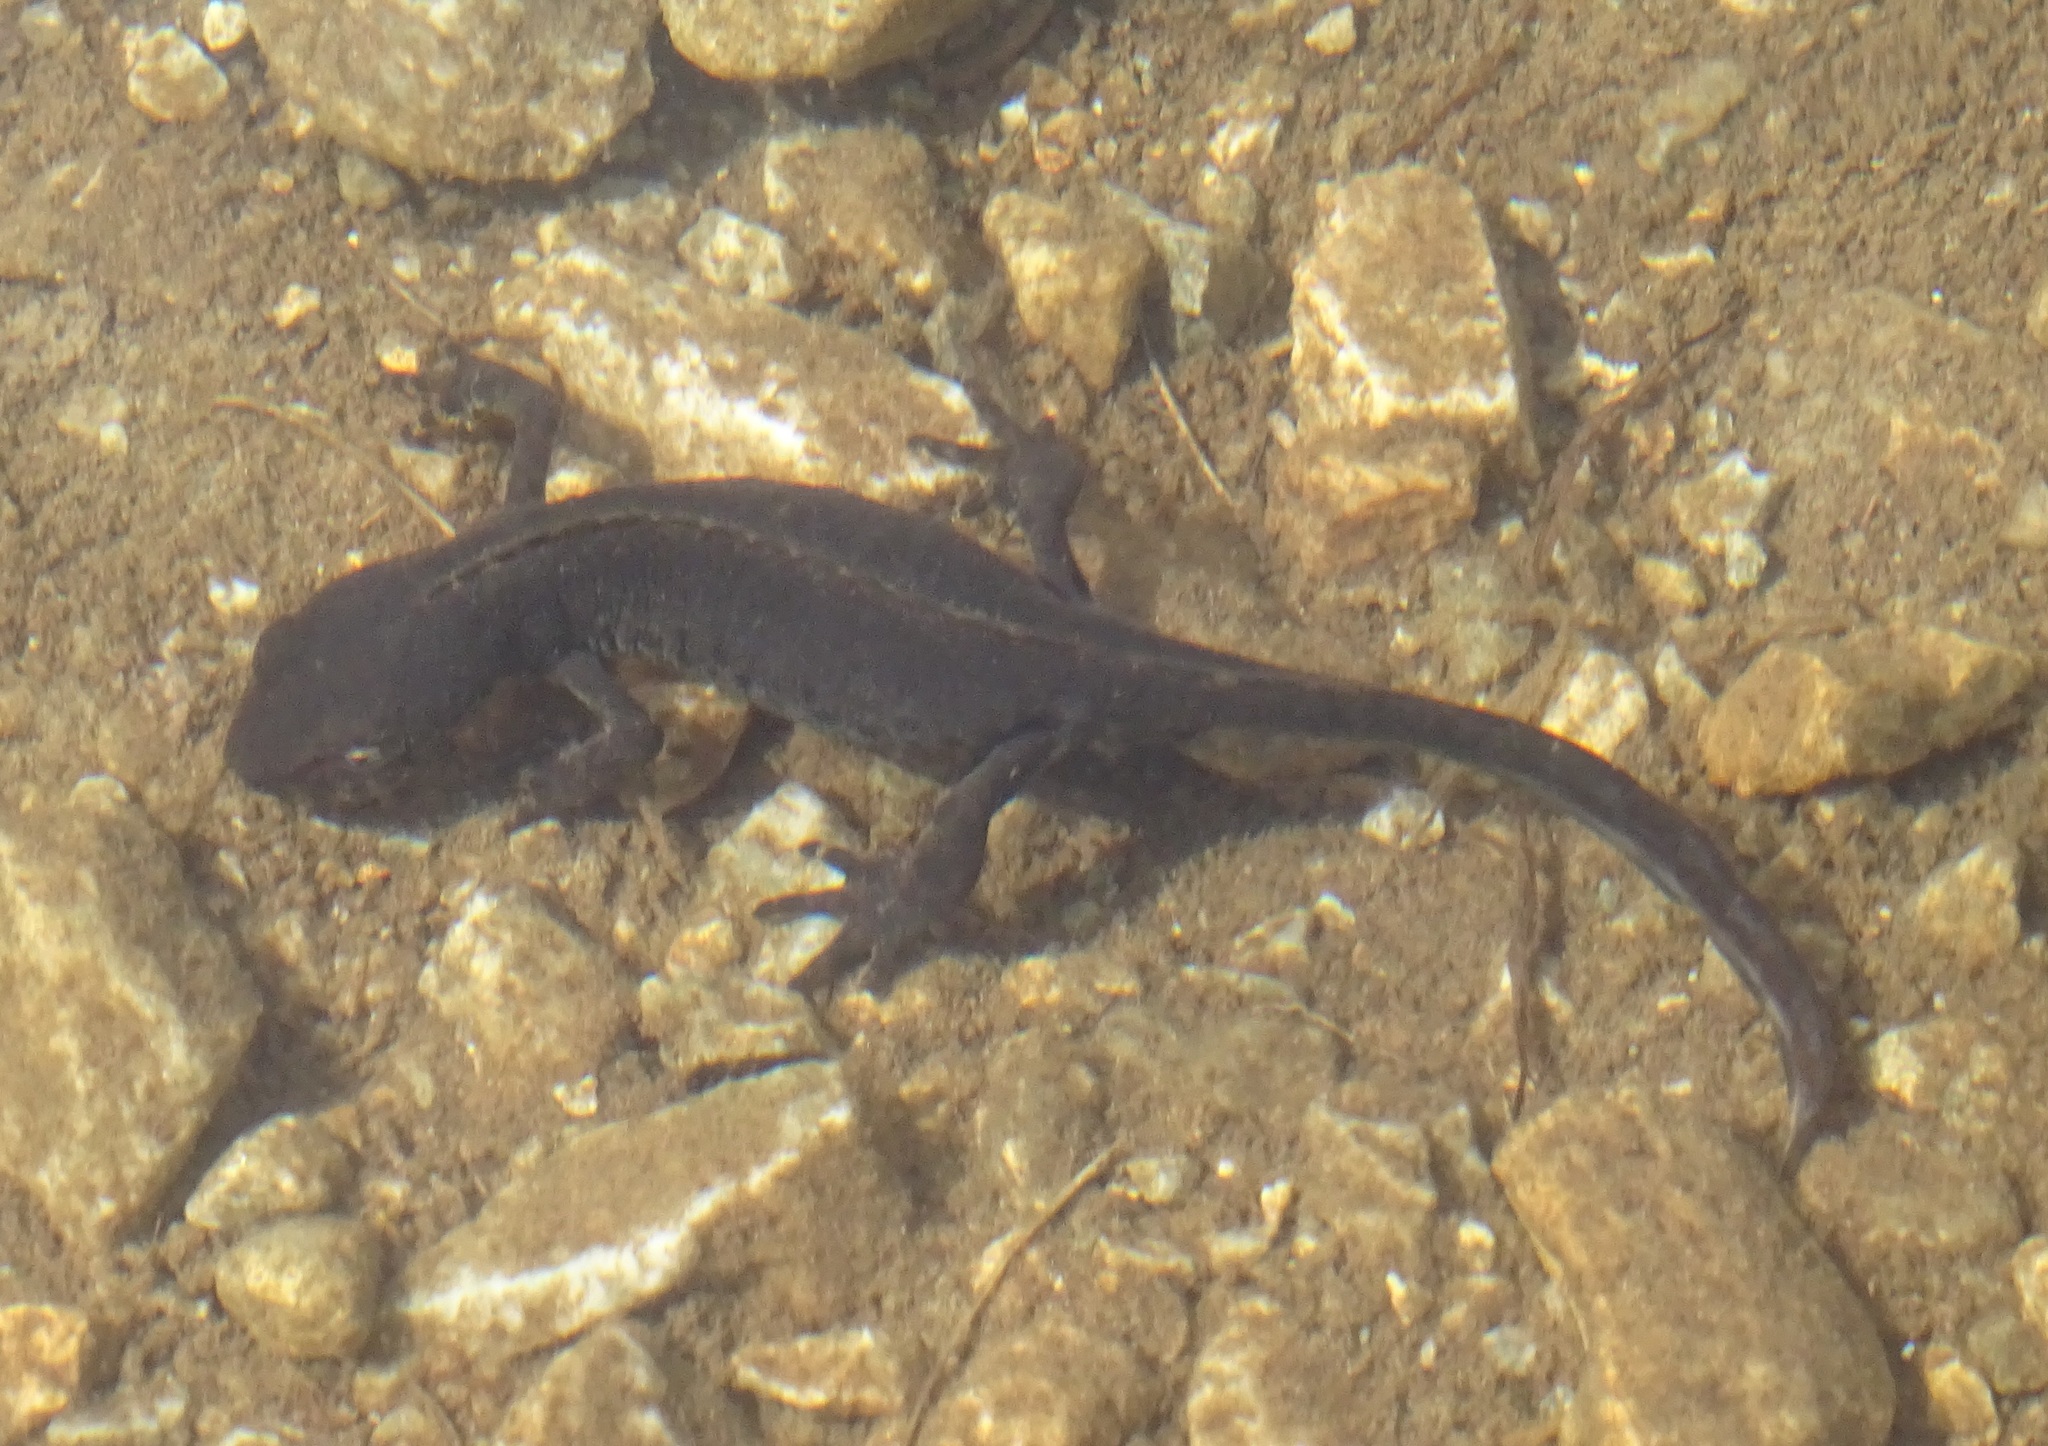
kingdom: Animalia
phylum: Chordata
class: Amphibia
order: Caudata
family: Salamandridae
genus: Ichthyosaura
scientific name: Ichthyosaura alpestris
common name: Alpine newt
